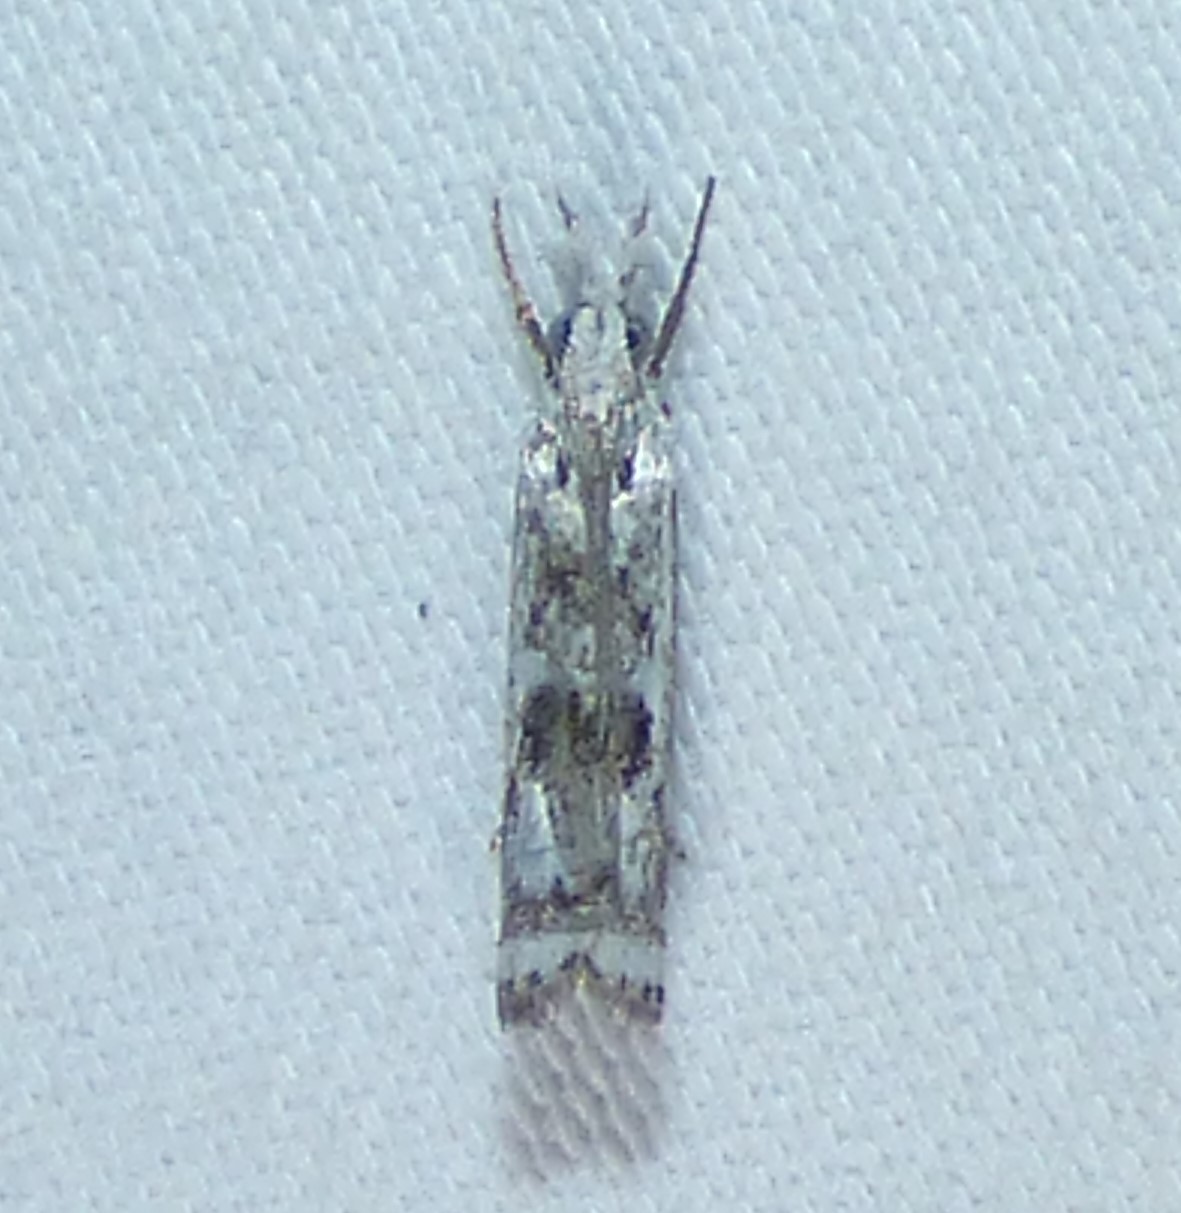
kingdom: Animalia
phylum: Arthropoda
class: Insecta
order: Lepidoptera
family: Crambidae
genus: Microcrambus
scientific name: Microcrambus immunellus
